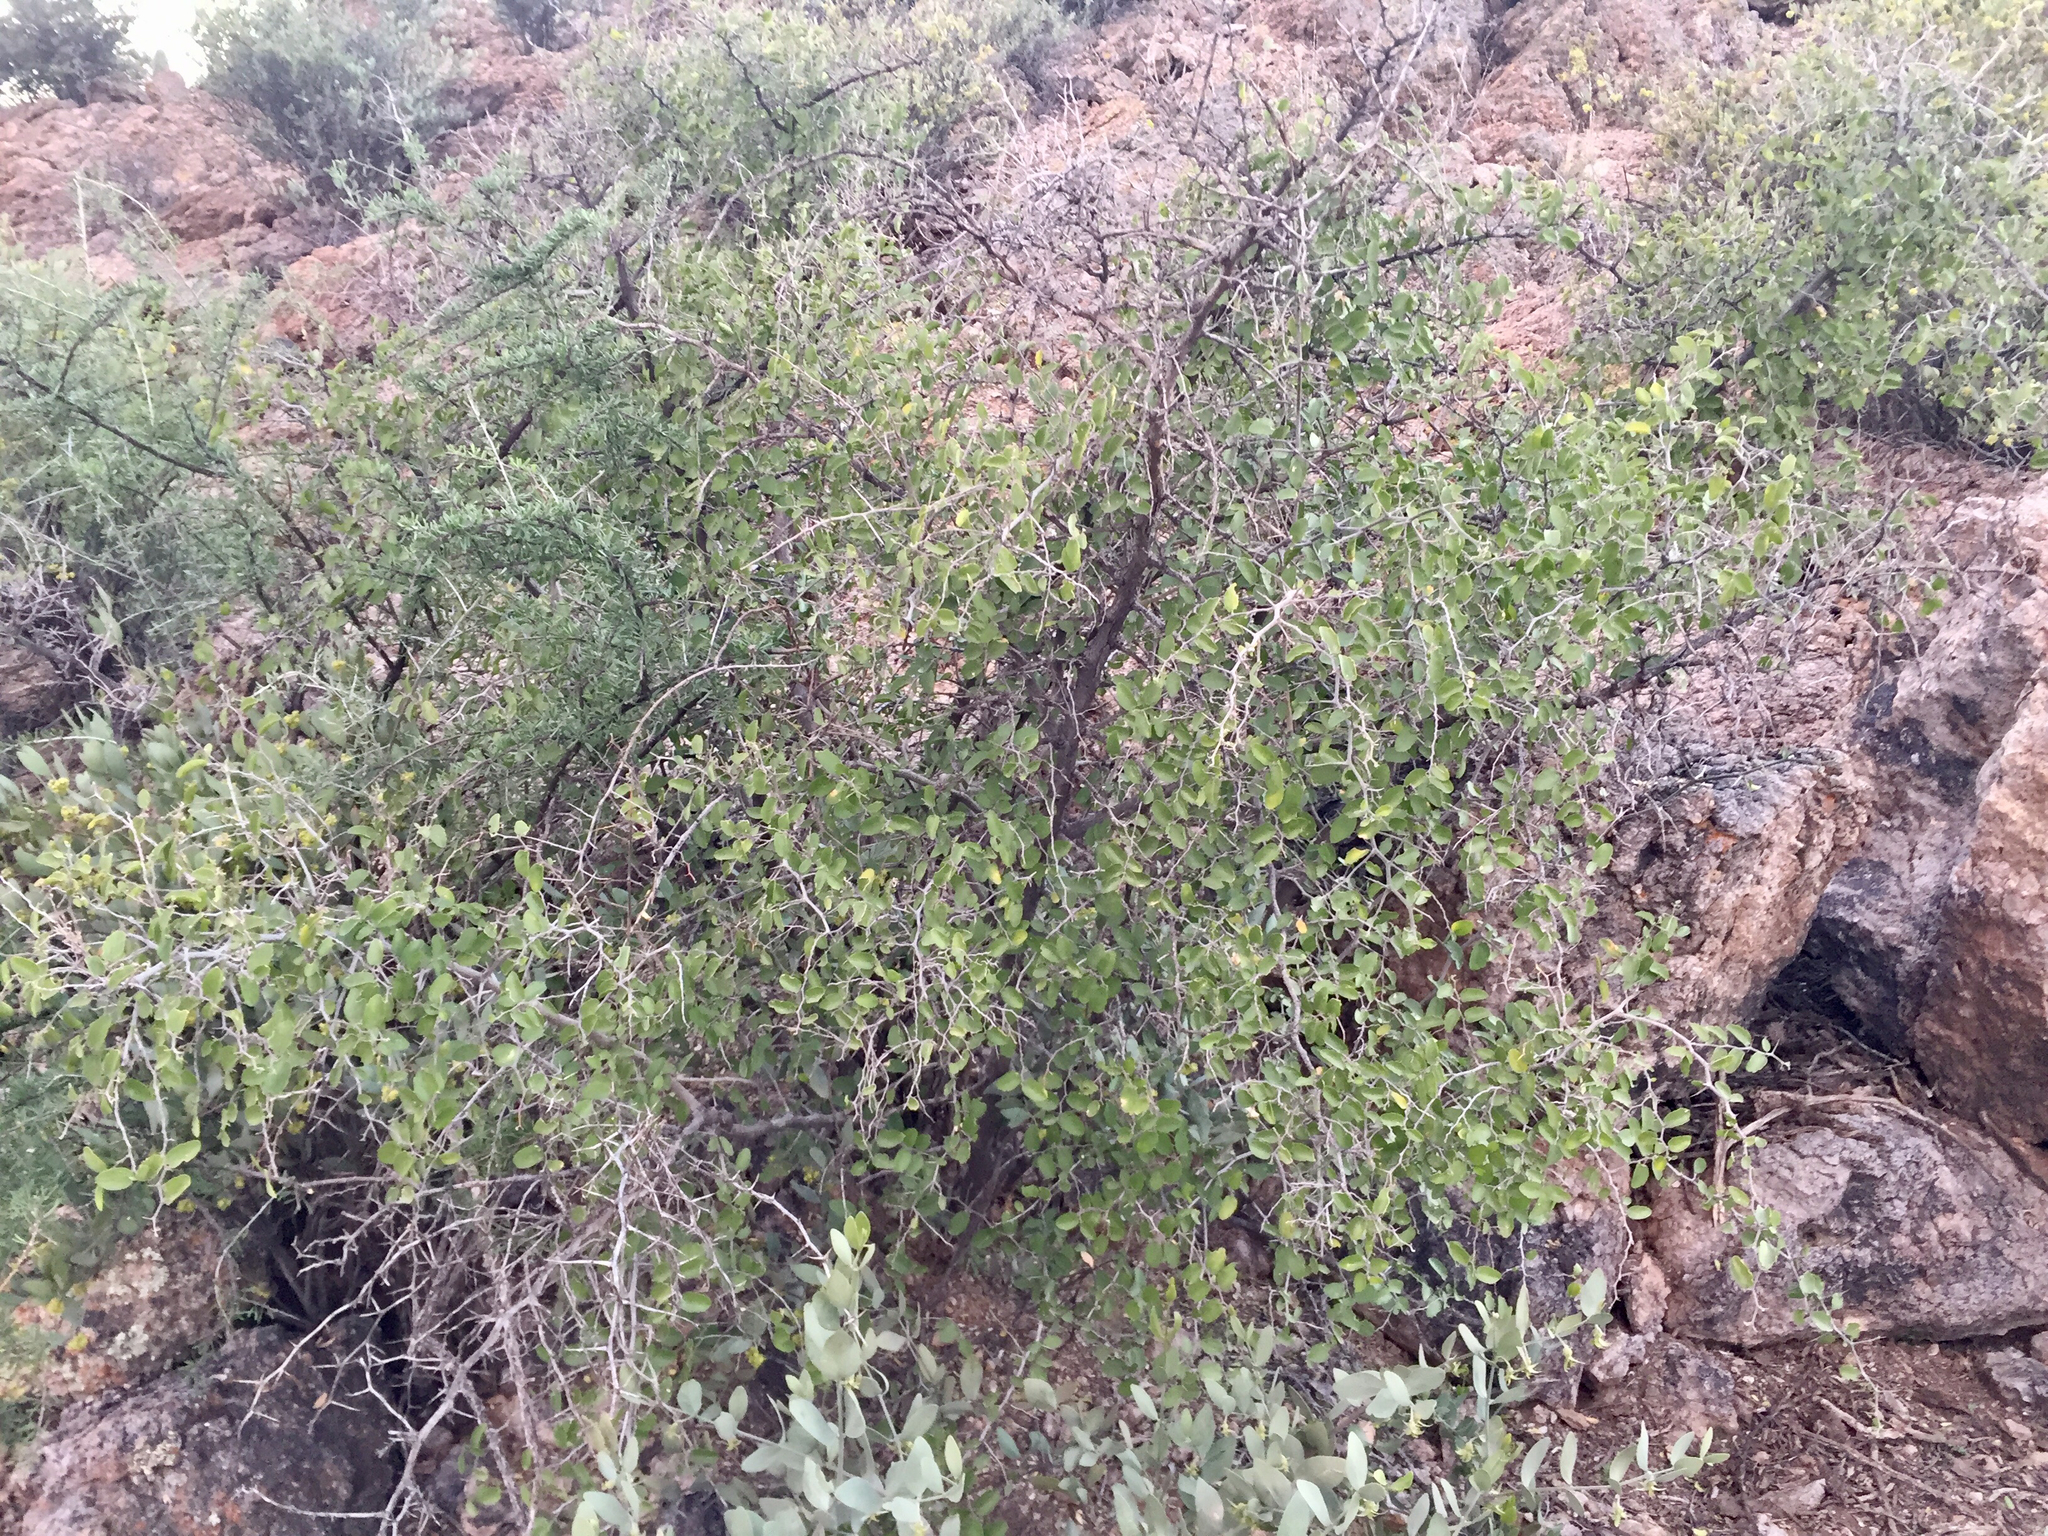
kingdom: Plantae
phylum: Tracheophyta
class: Magnoliopsida
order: Rosales
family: Cannabaceae
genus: Celtis
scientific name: Celtis pallida
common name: Desert hackberry
